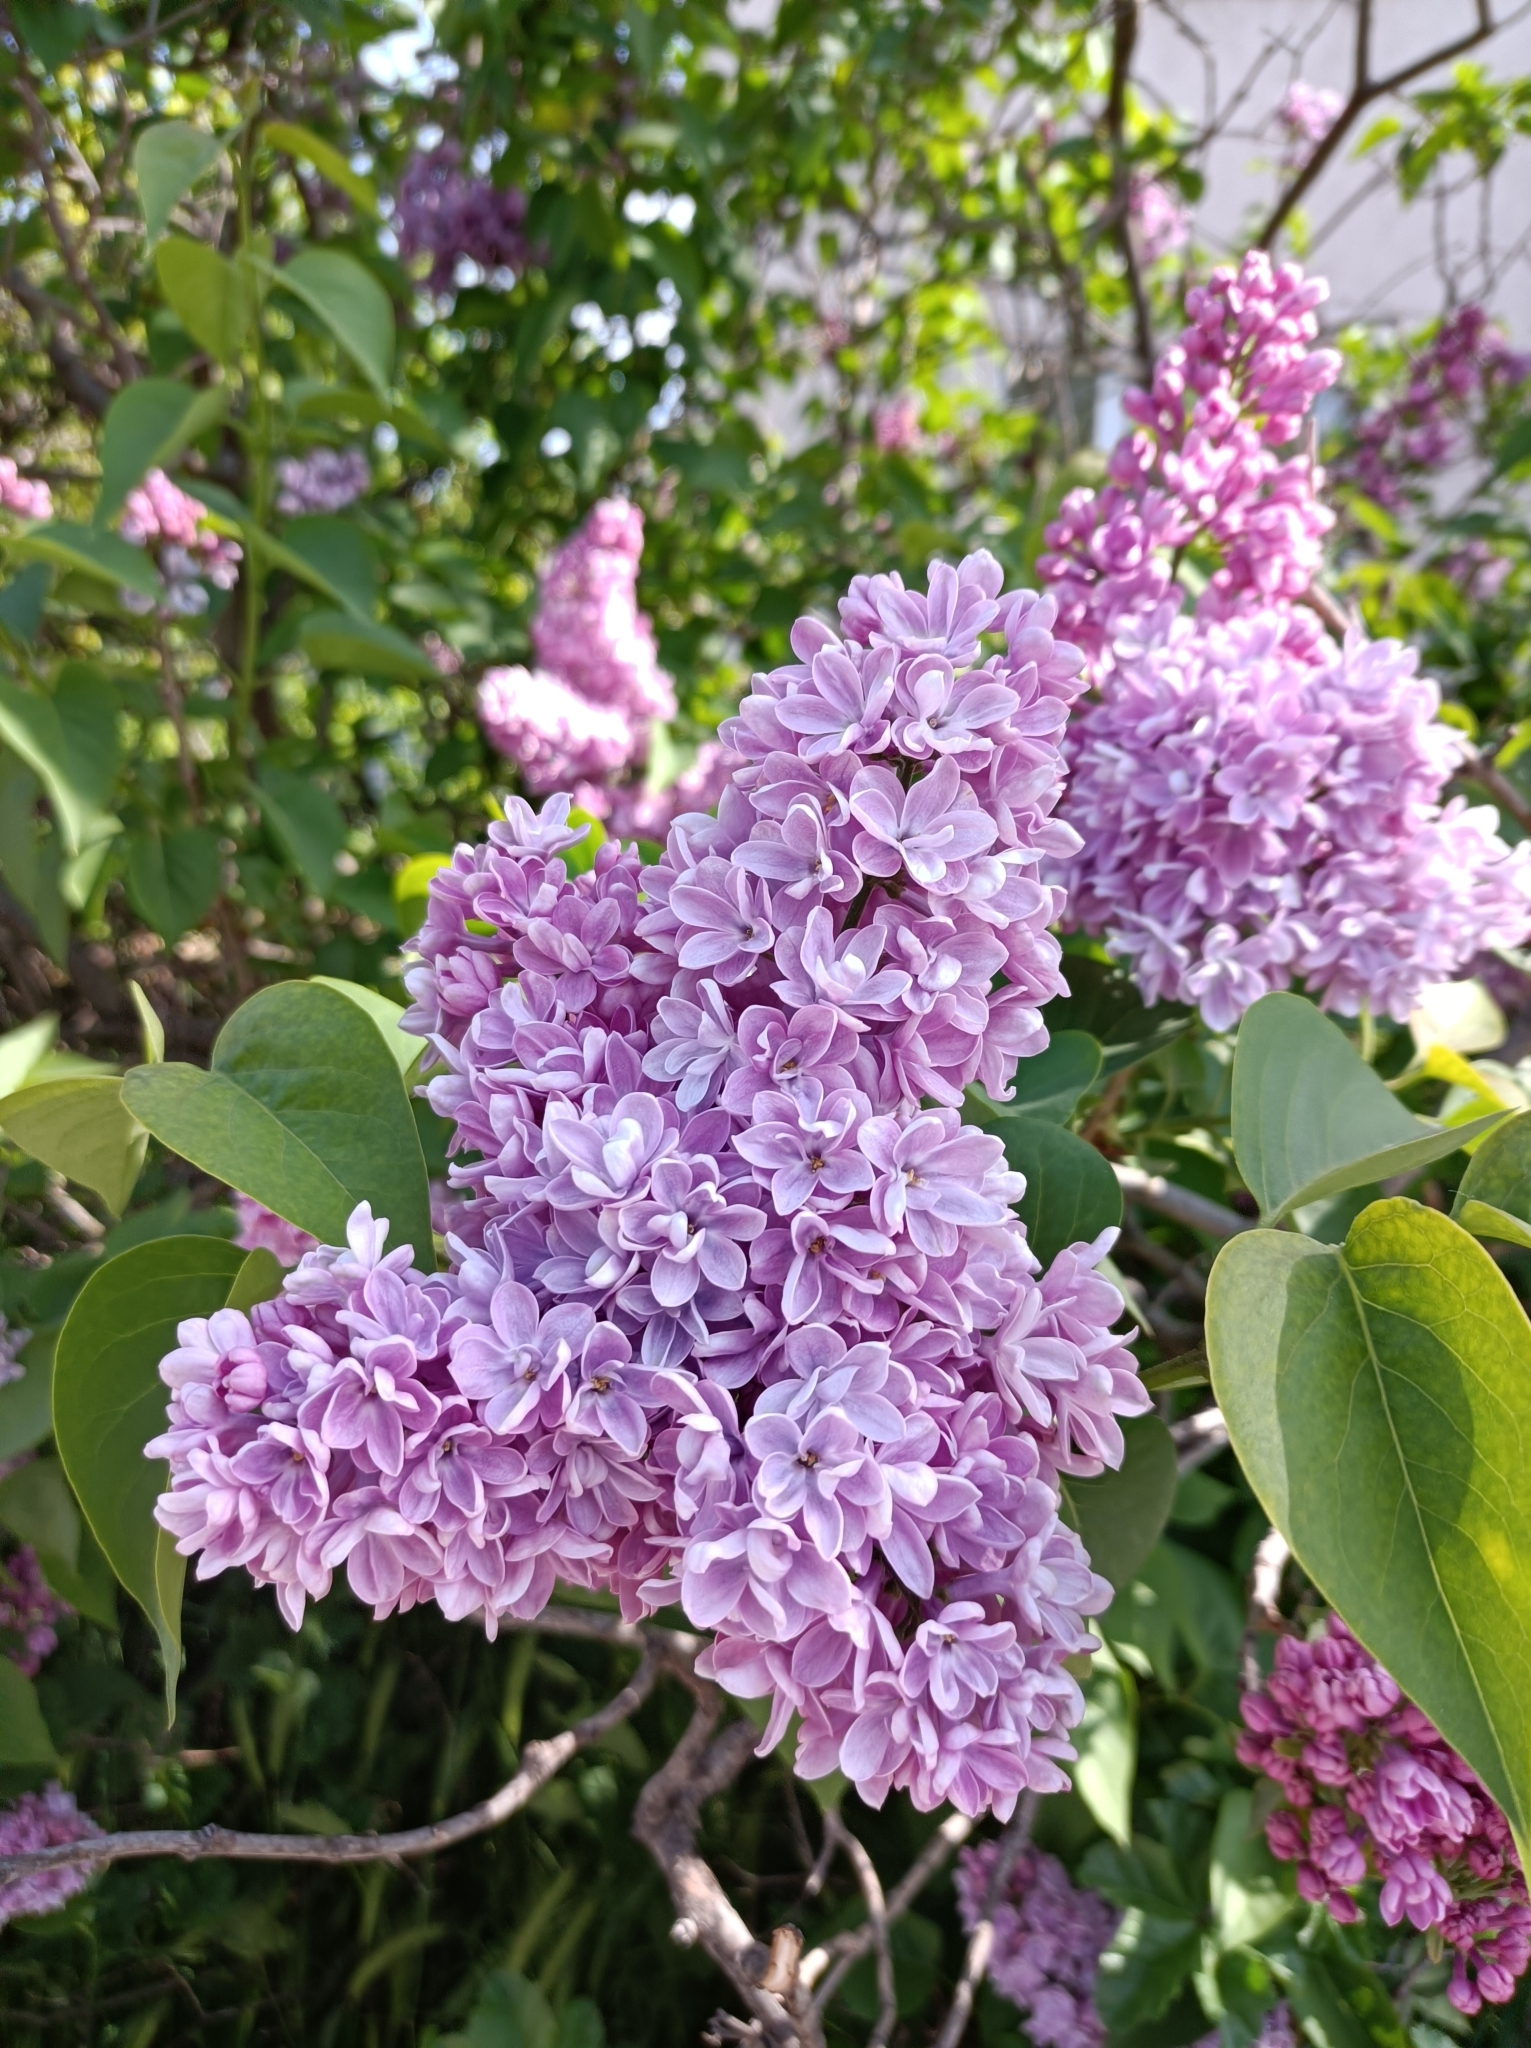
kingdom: Plantae
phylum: Tracheophyta
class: Magnoliopsida
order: Lamiales
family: Oleaceae
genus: Syringa
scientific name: Syringa vulgaris
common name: Common lilac
